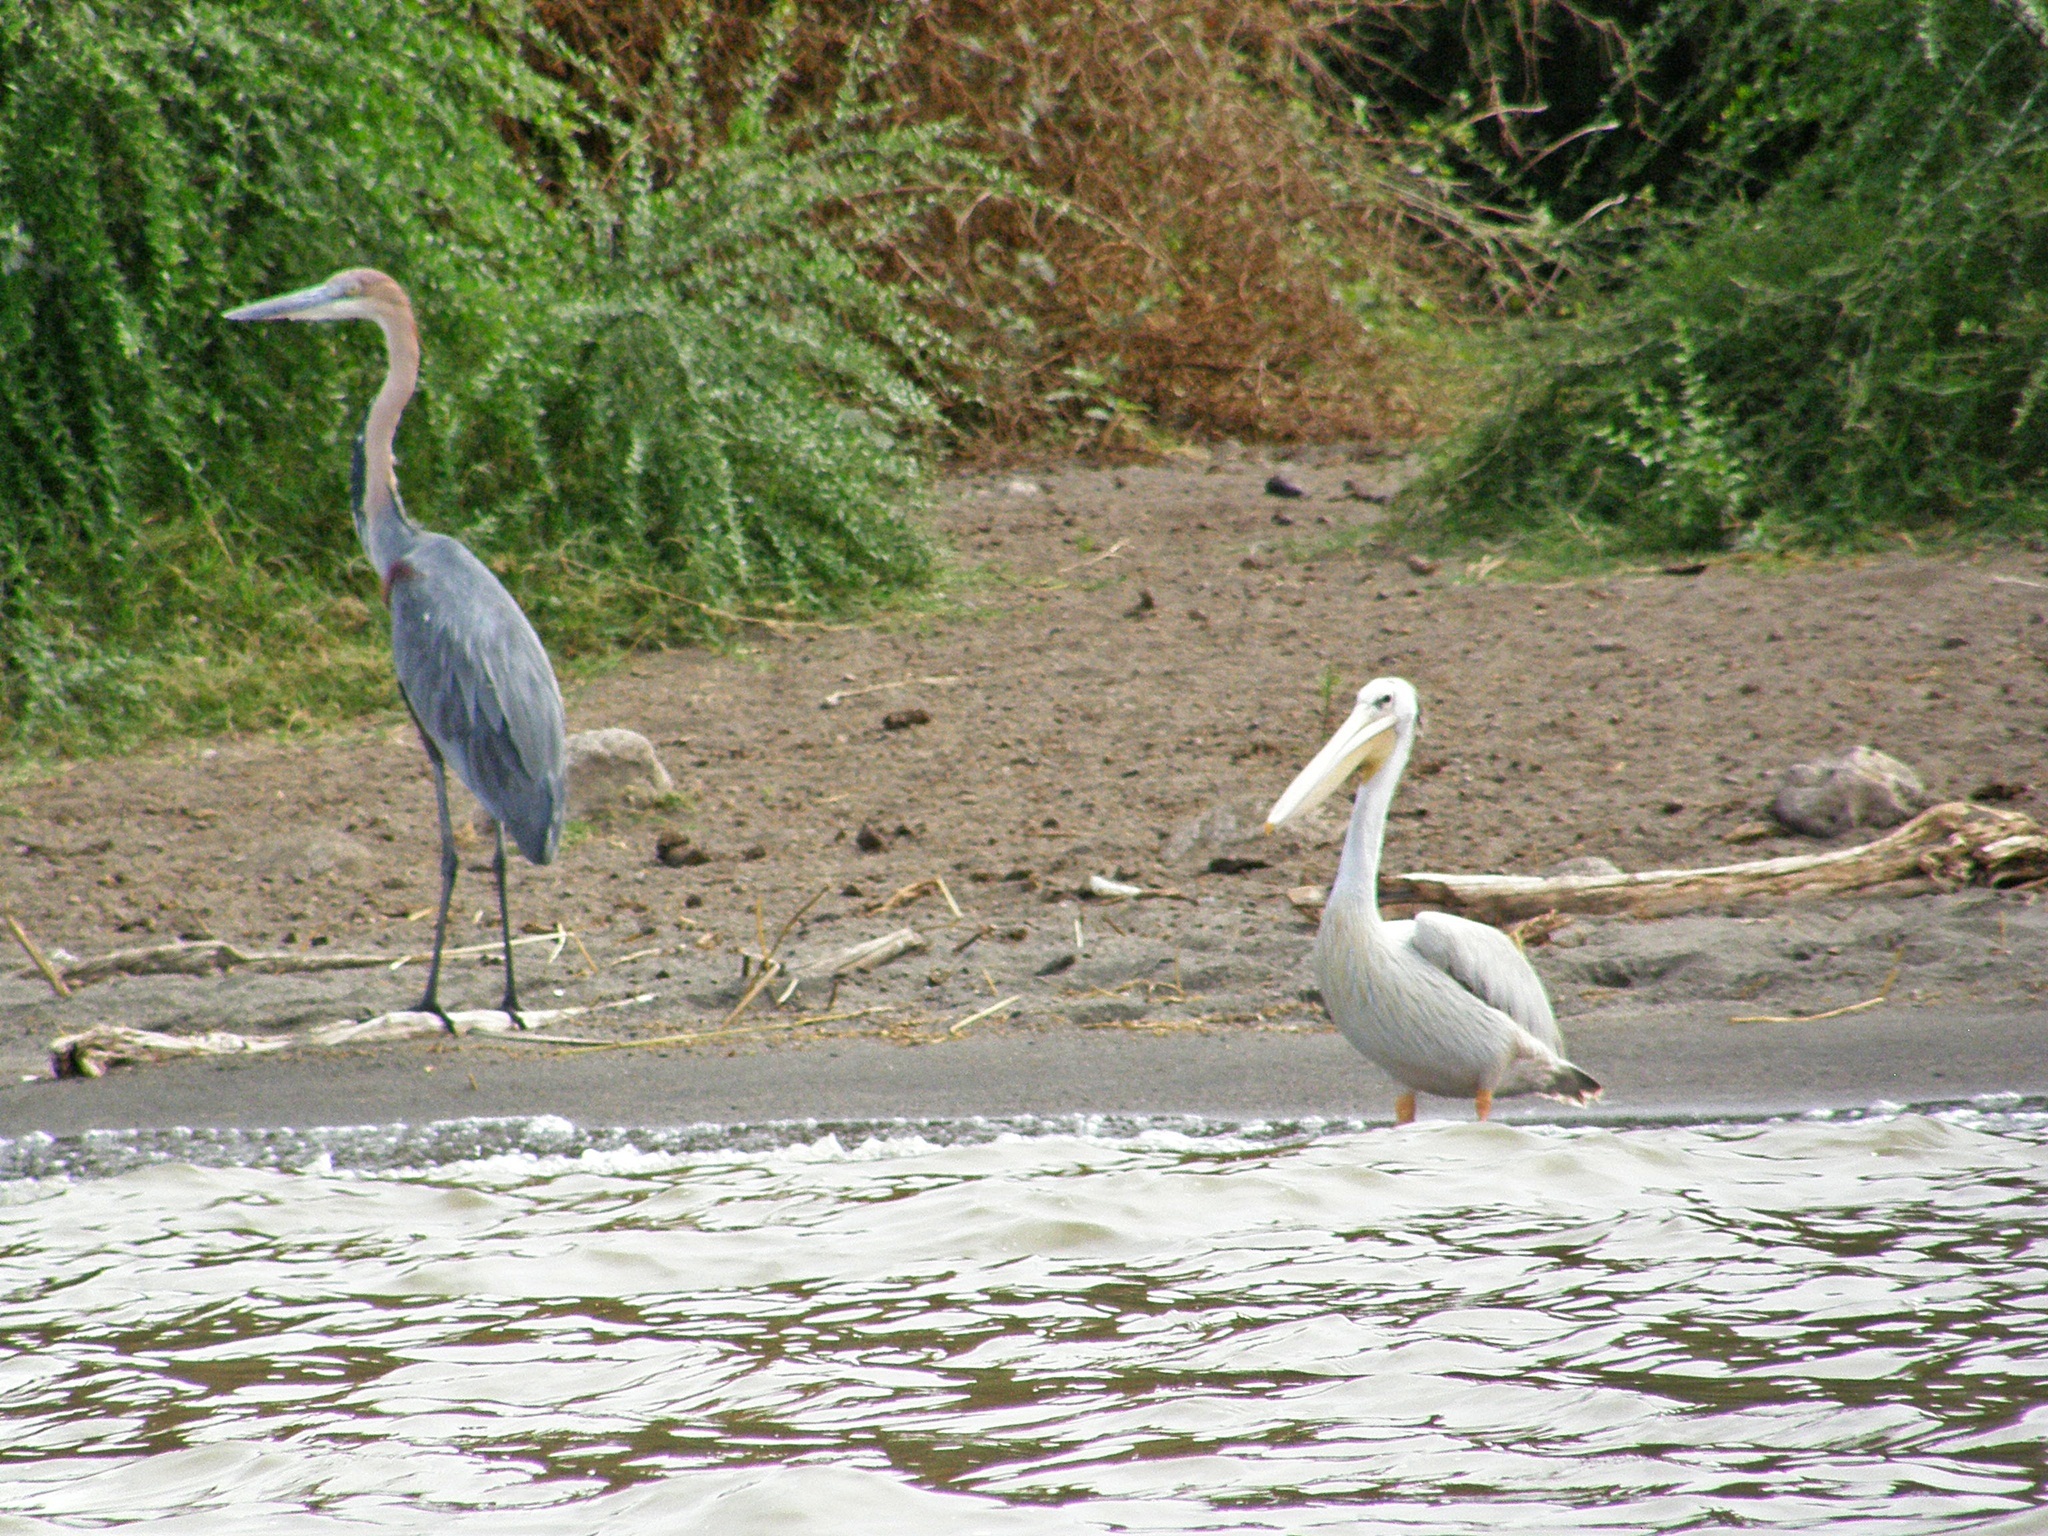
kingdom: Animalia
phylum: Chordata
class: Aves
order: Pelecaniformes
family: Ardeidae
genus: Ardea
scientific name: Ardea goliath
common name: Goliath heron
